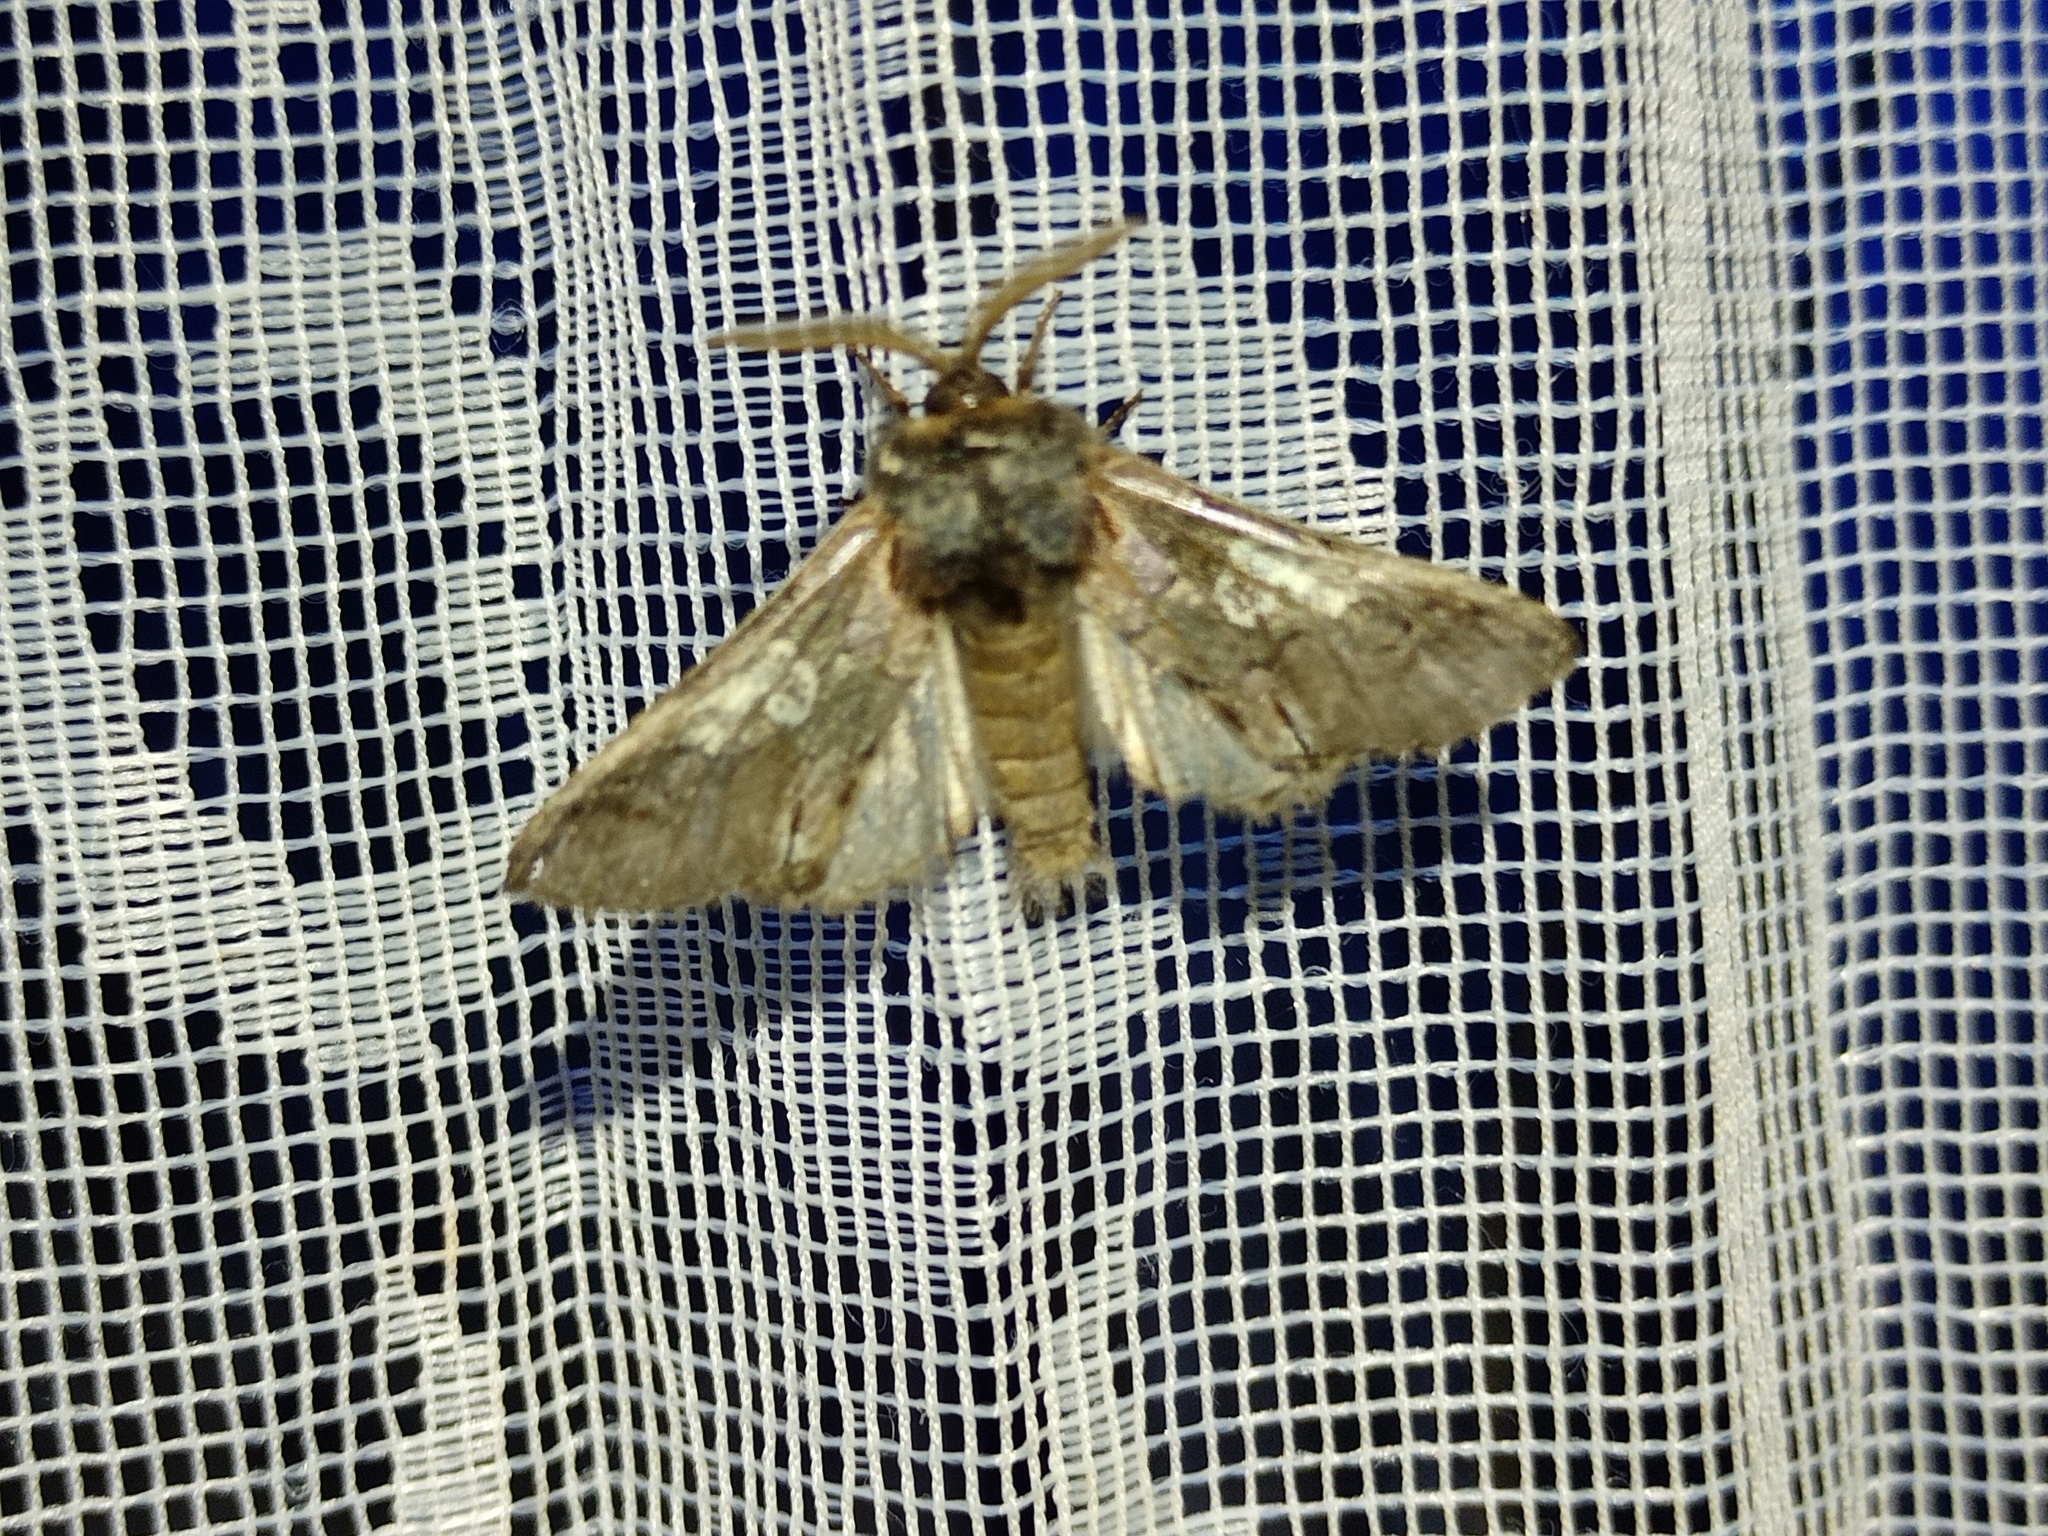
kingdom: Animalia
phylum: Arthropoda
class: Insecta
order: Lepidoptera
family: Noctuidae
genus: Diloba
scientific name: Diloba caeruleocephala
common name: Figure of eight
